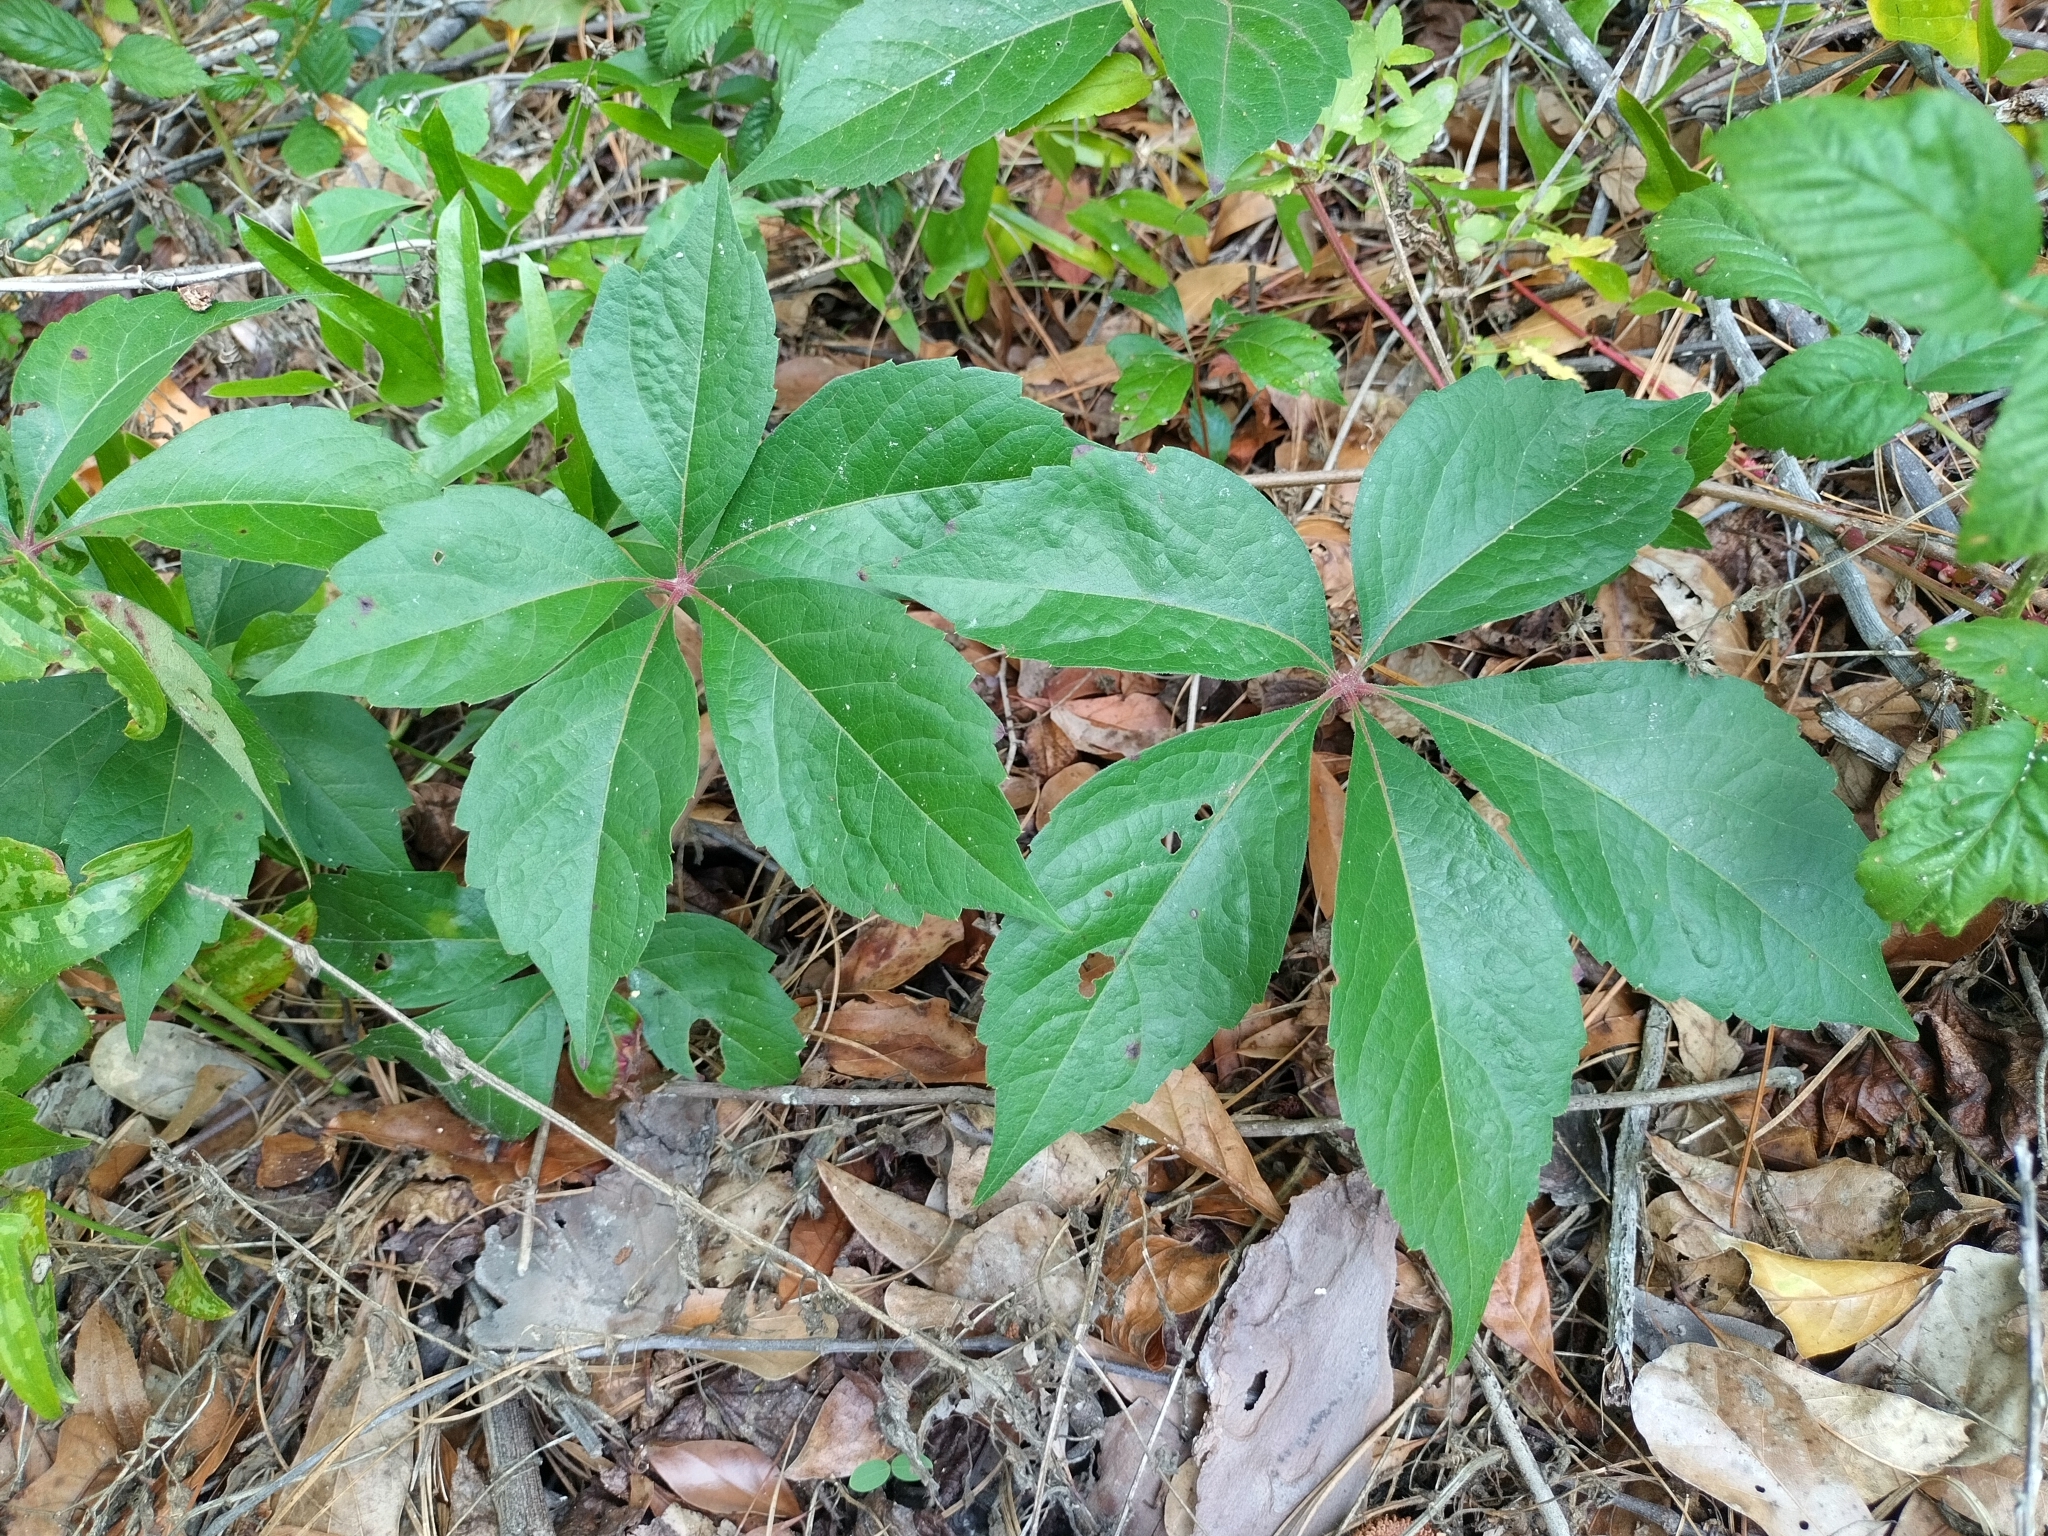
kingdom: Plantae
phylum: Tracheophyta
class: Magnoliopsida
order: Vitales
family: Vitaceae
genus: Parthenocissus
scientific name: Parthenocissus quinquefolia
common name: Virginia-creeper
